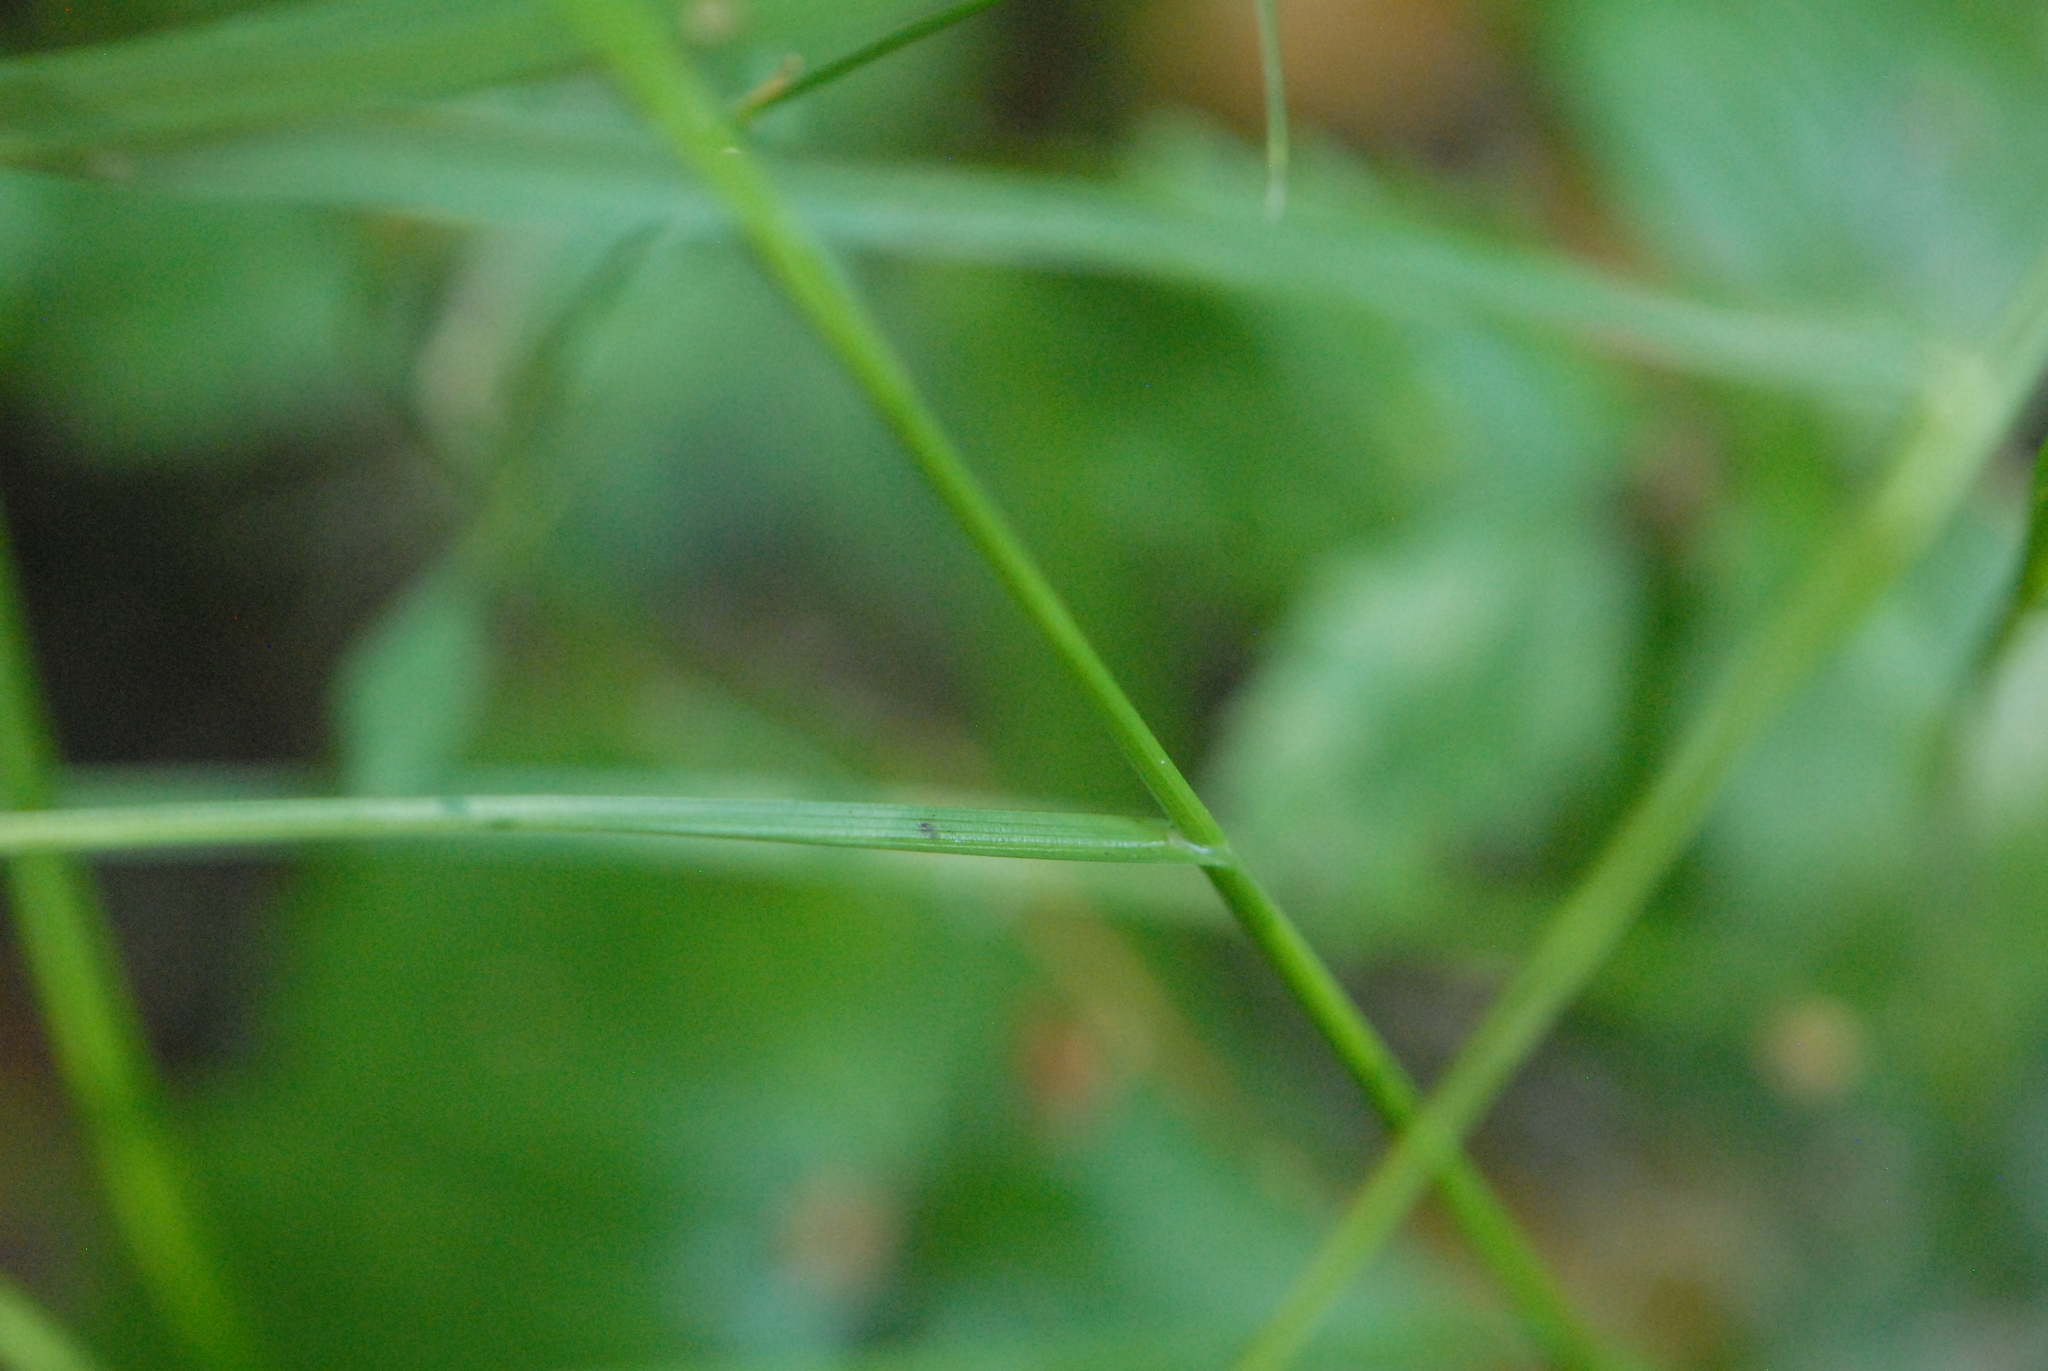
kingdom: Plantae
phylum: Tracheophyta
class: Liliopsida
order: Poales
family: Cyperaceae
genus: Carex
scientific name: Carex leporina
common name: Oval sedge
